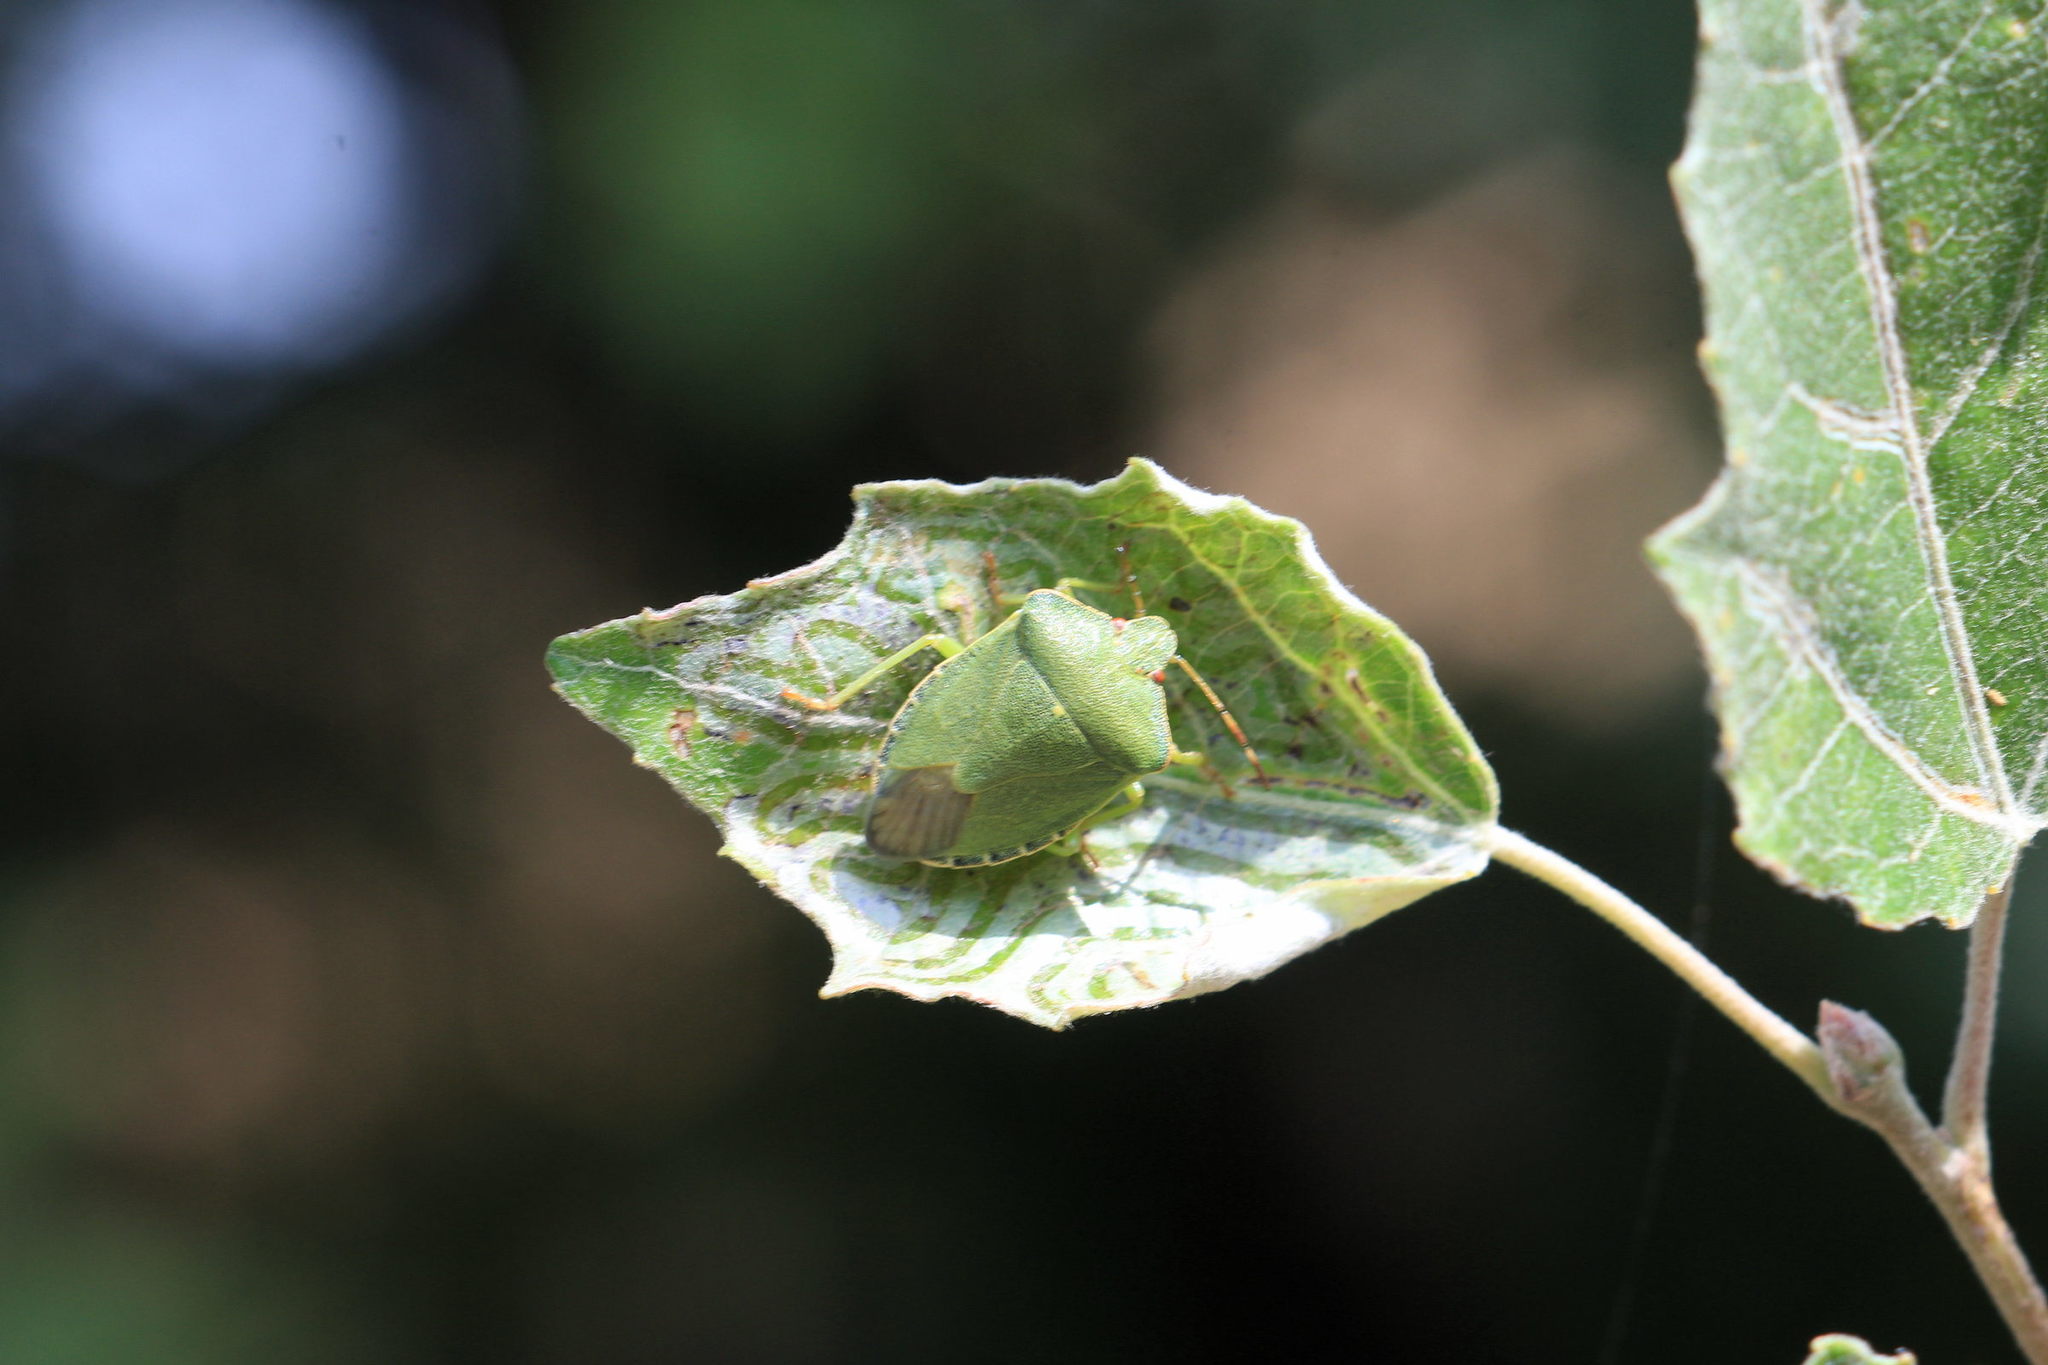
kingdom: Animalia
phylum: Arthropoda
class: Insecta
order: Hemiptera
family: Pentatomidae
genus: Palomena
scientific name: Palomena prasina
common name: Green shieldbug
